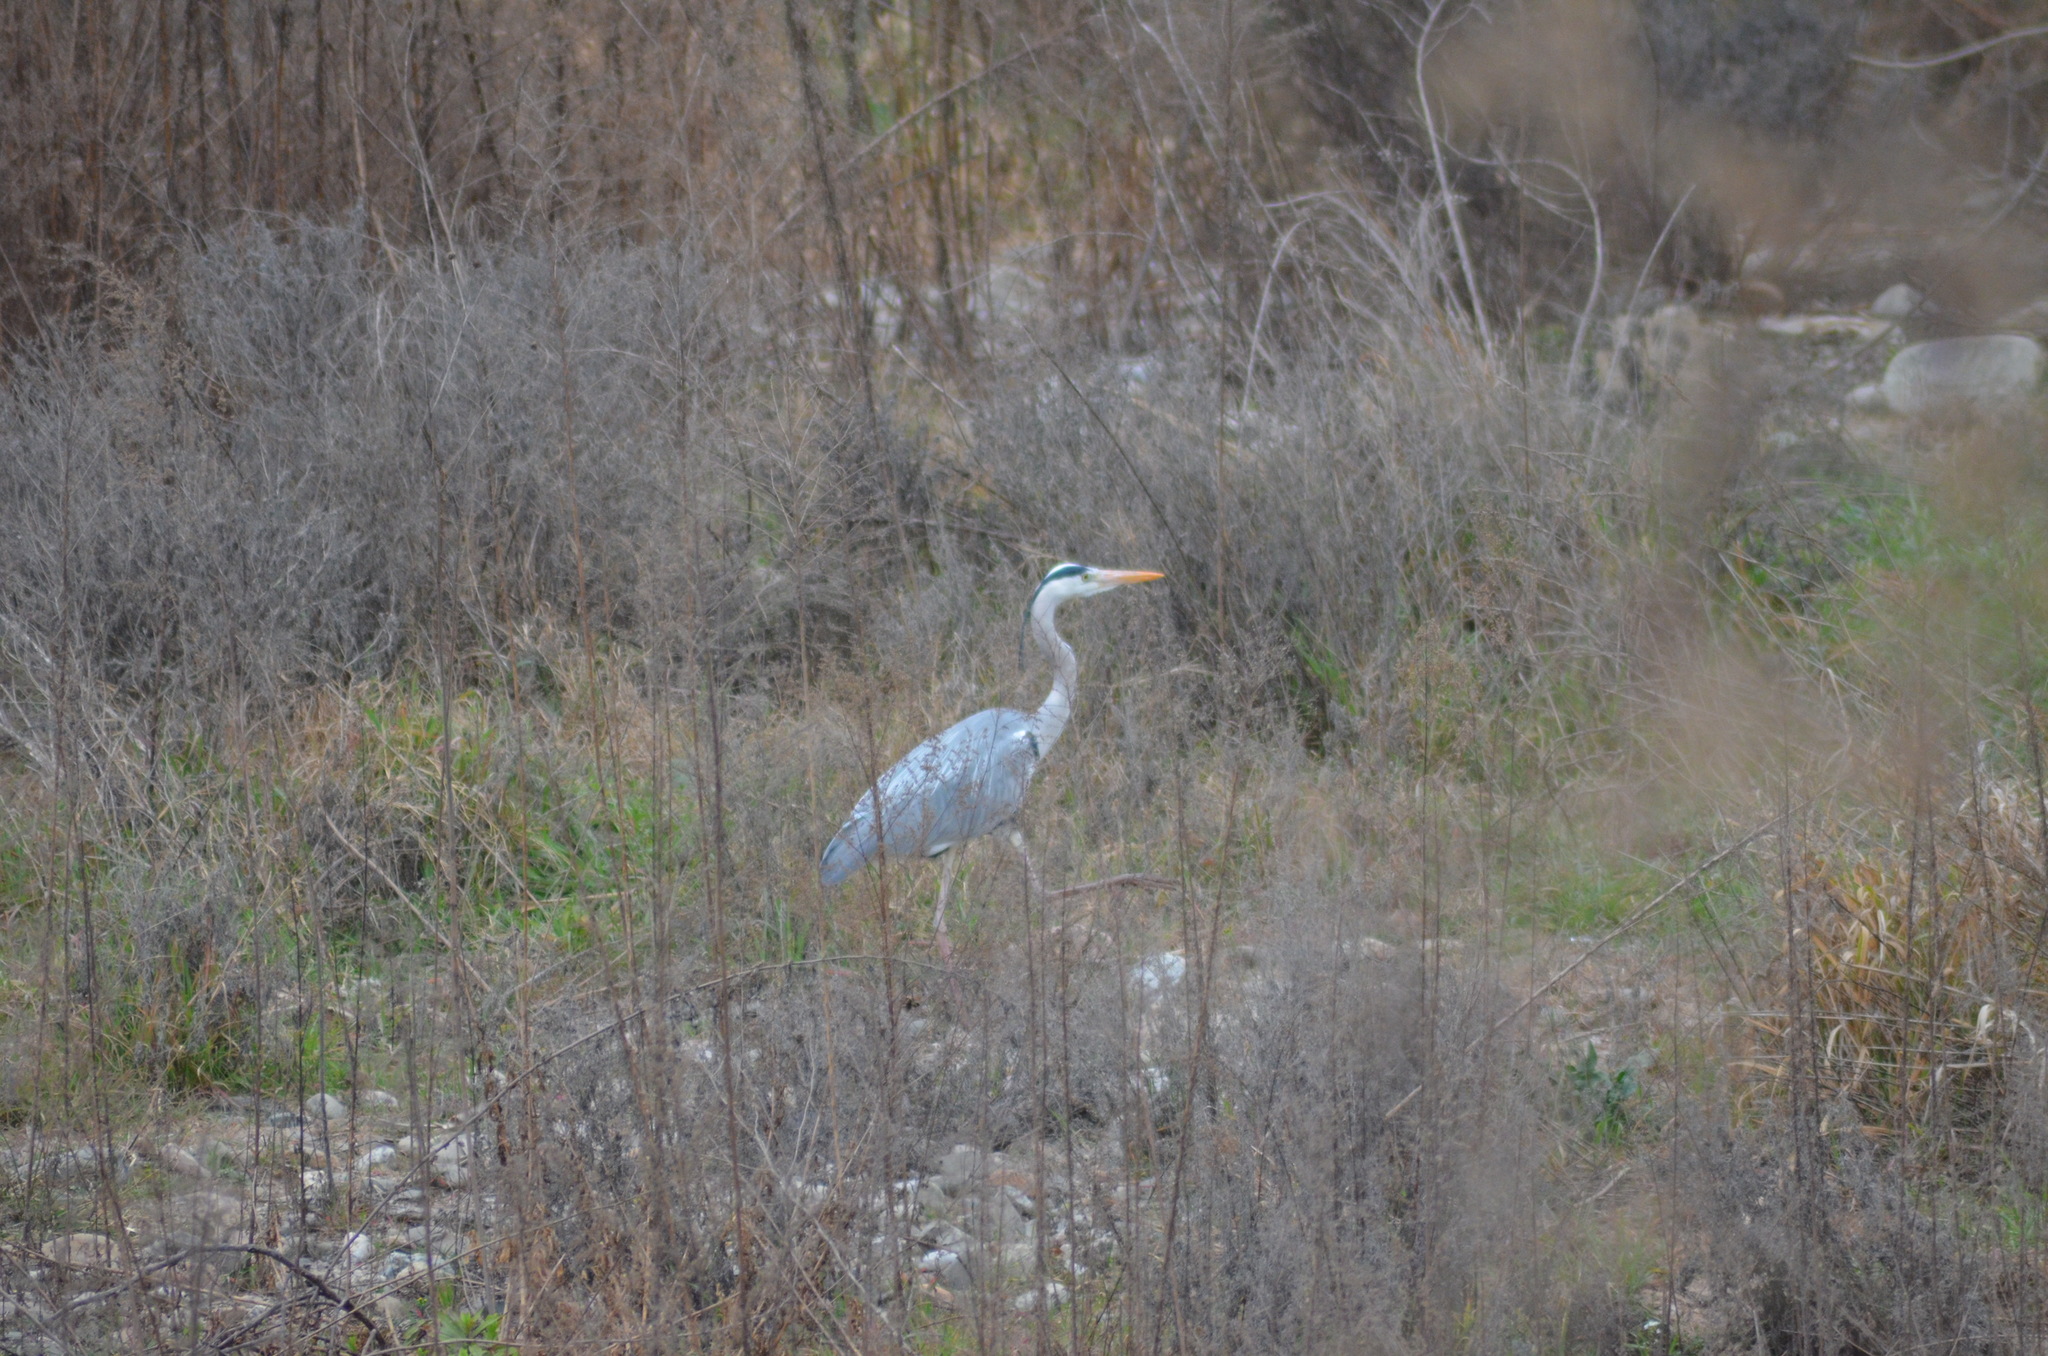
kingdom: Animalia
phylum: Chordata
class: Aves
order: Pelecaniformes
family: Ardeidae
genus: Ardea
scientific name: Ardea cinerea
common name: Grey heron
